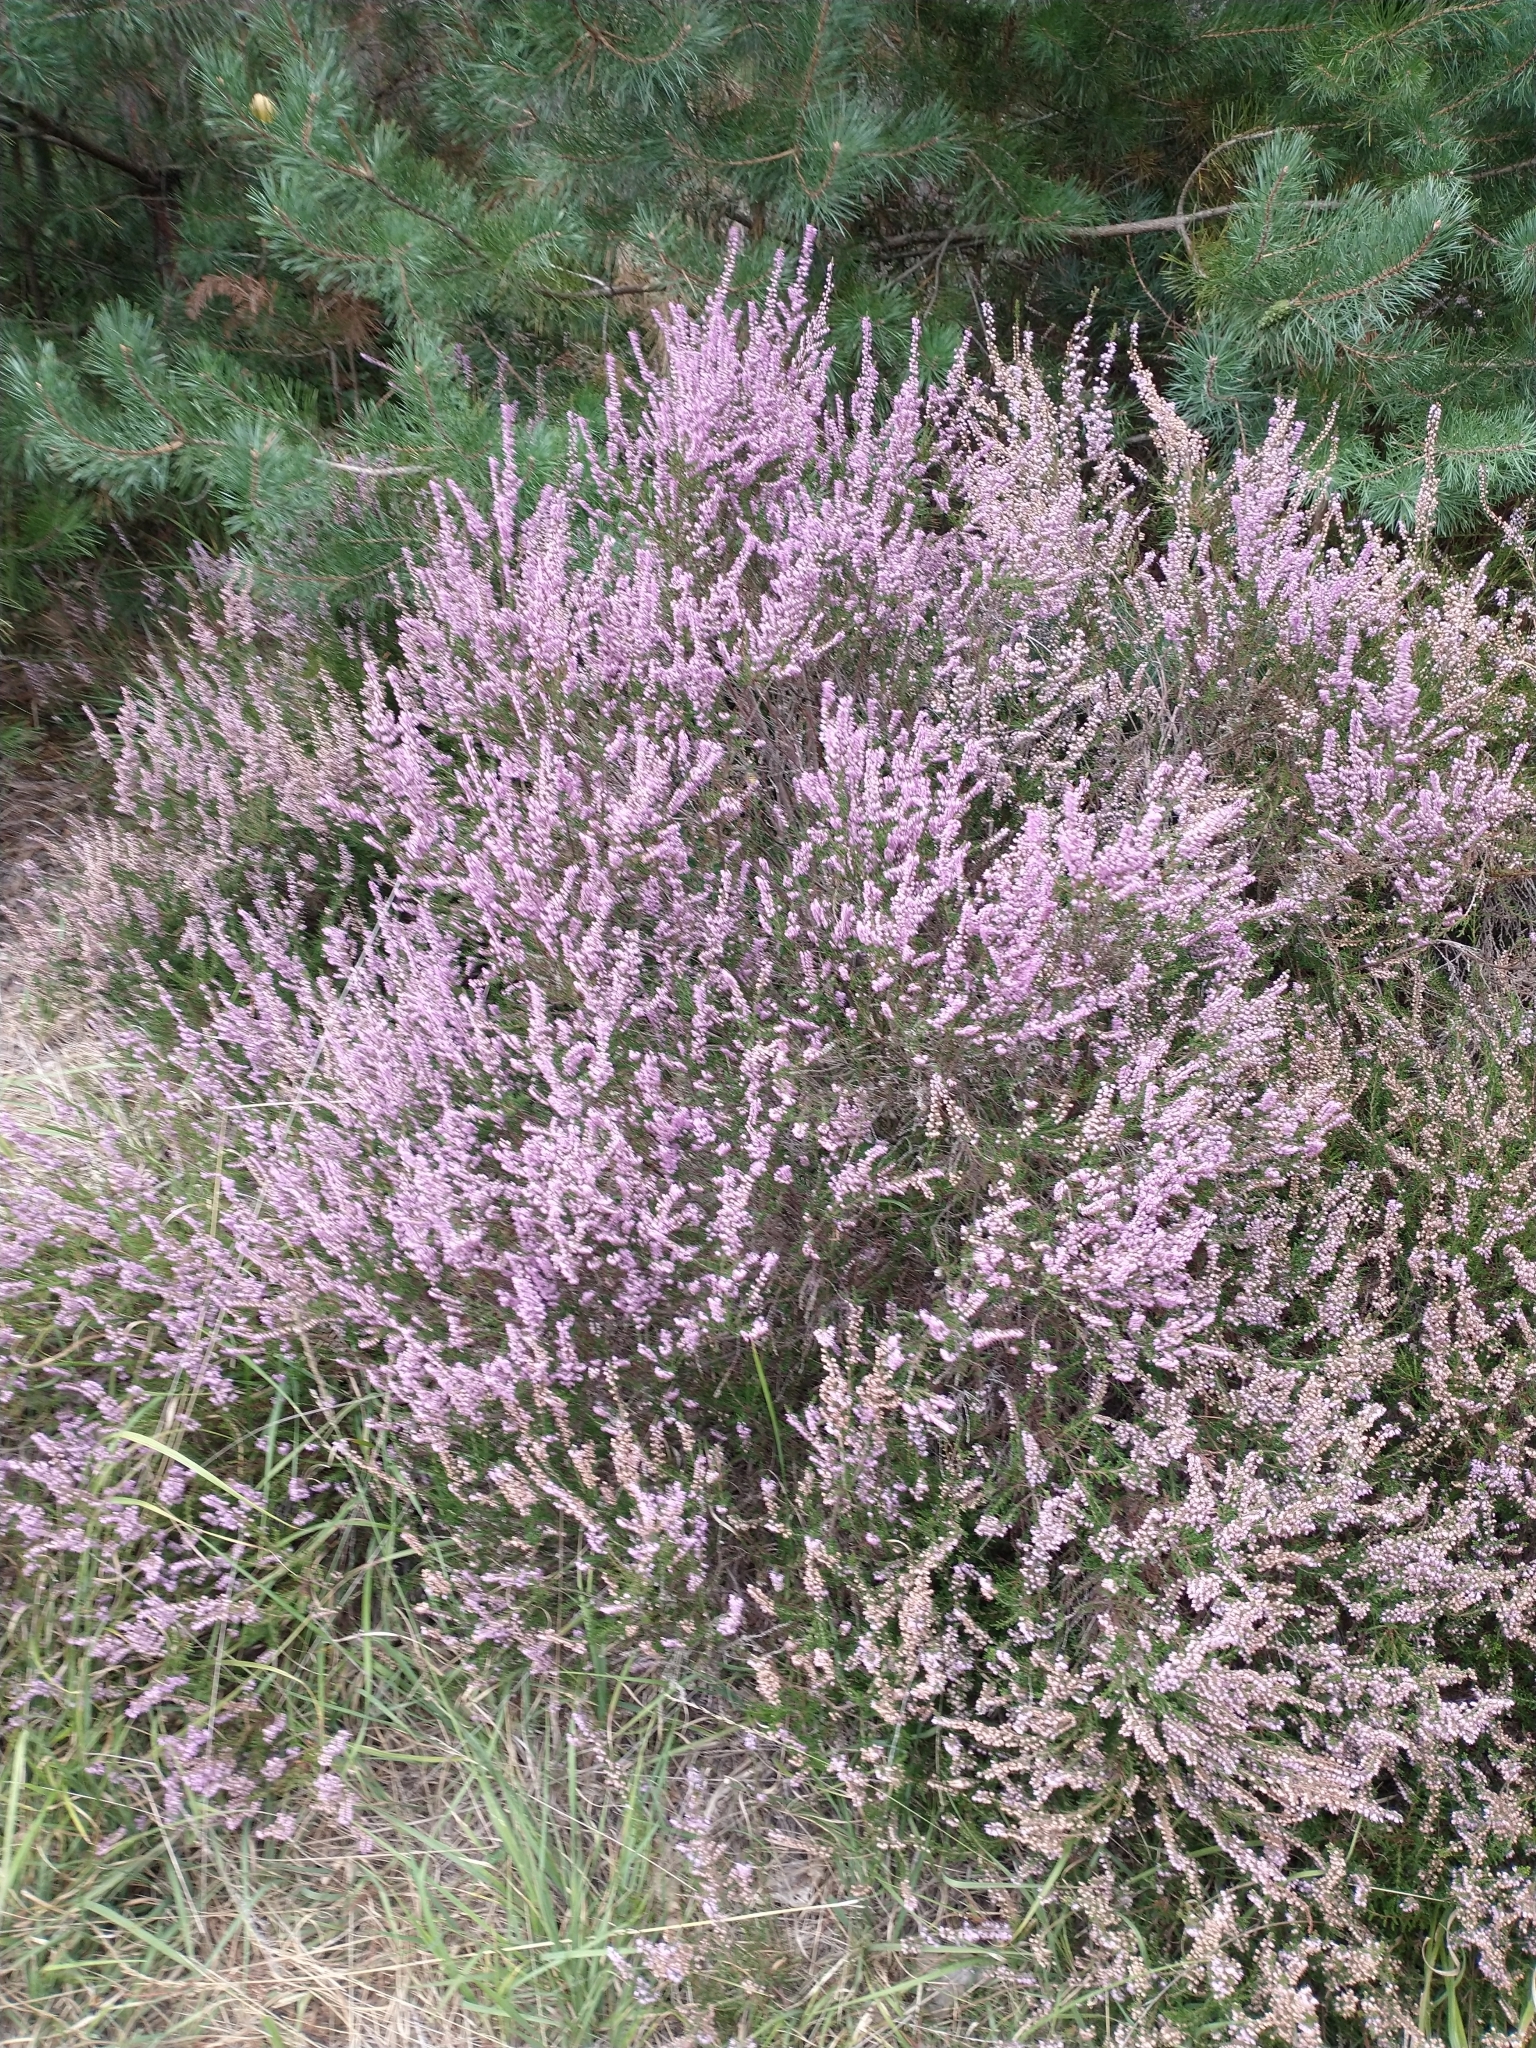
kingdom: Plantae
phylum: Tracheophyta
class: Magnoliopsida
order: Ericales
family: Ericaceae
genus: Calluna
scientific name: Calluna vulgaris
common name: Heather
